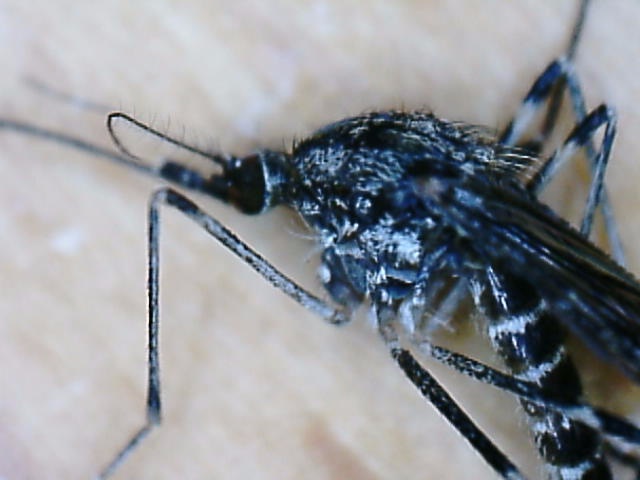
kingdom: Animalia
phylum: Arthropoda
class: Insecta
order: Diptera
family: Culicidae
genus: Culiseta
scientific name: Culiseta annulata
